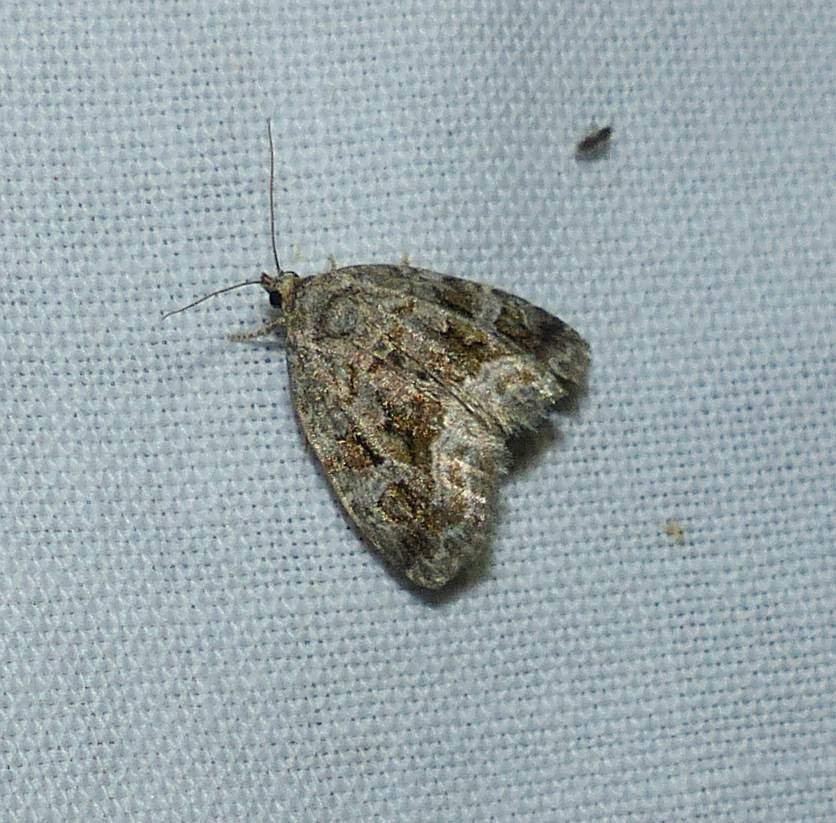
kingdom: Animalia
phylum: Arthropoda
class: Insecta
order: Lepidoptera
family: Noctuidae
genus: Protodeltote
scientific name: Protodeltote muscosula
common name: Large mossy glyph
